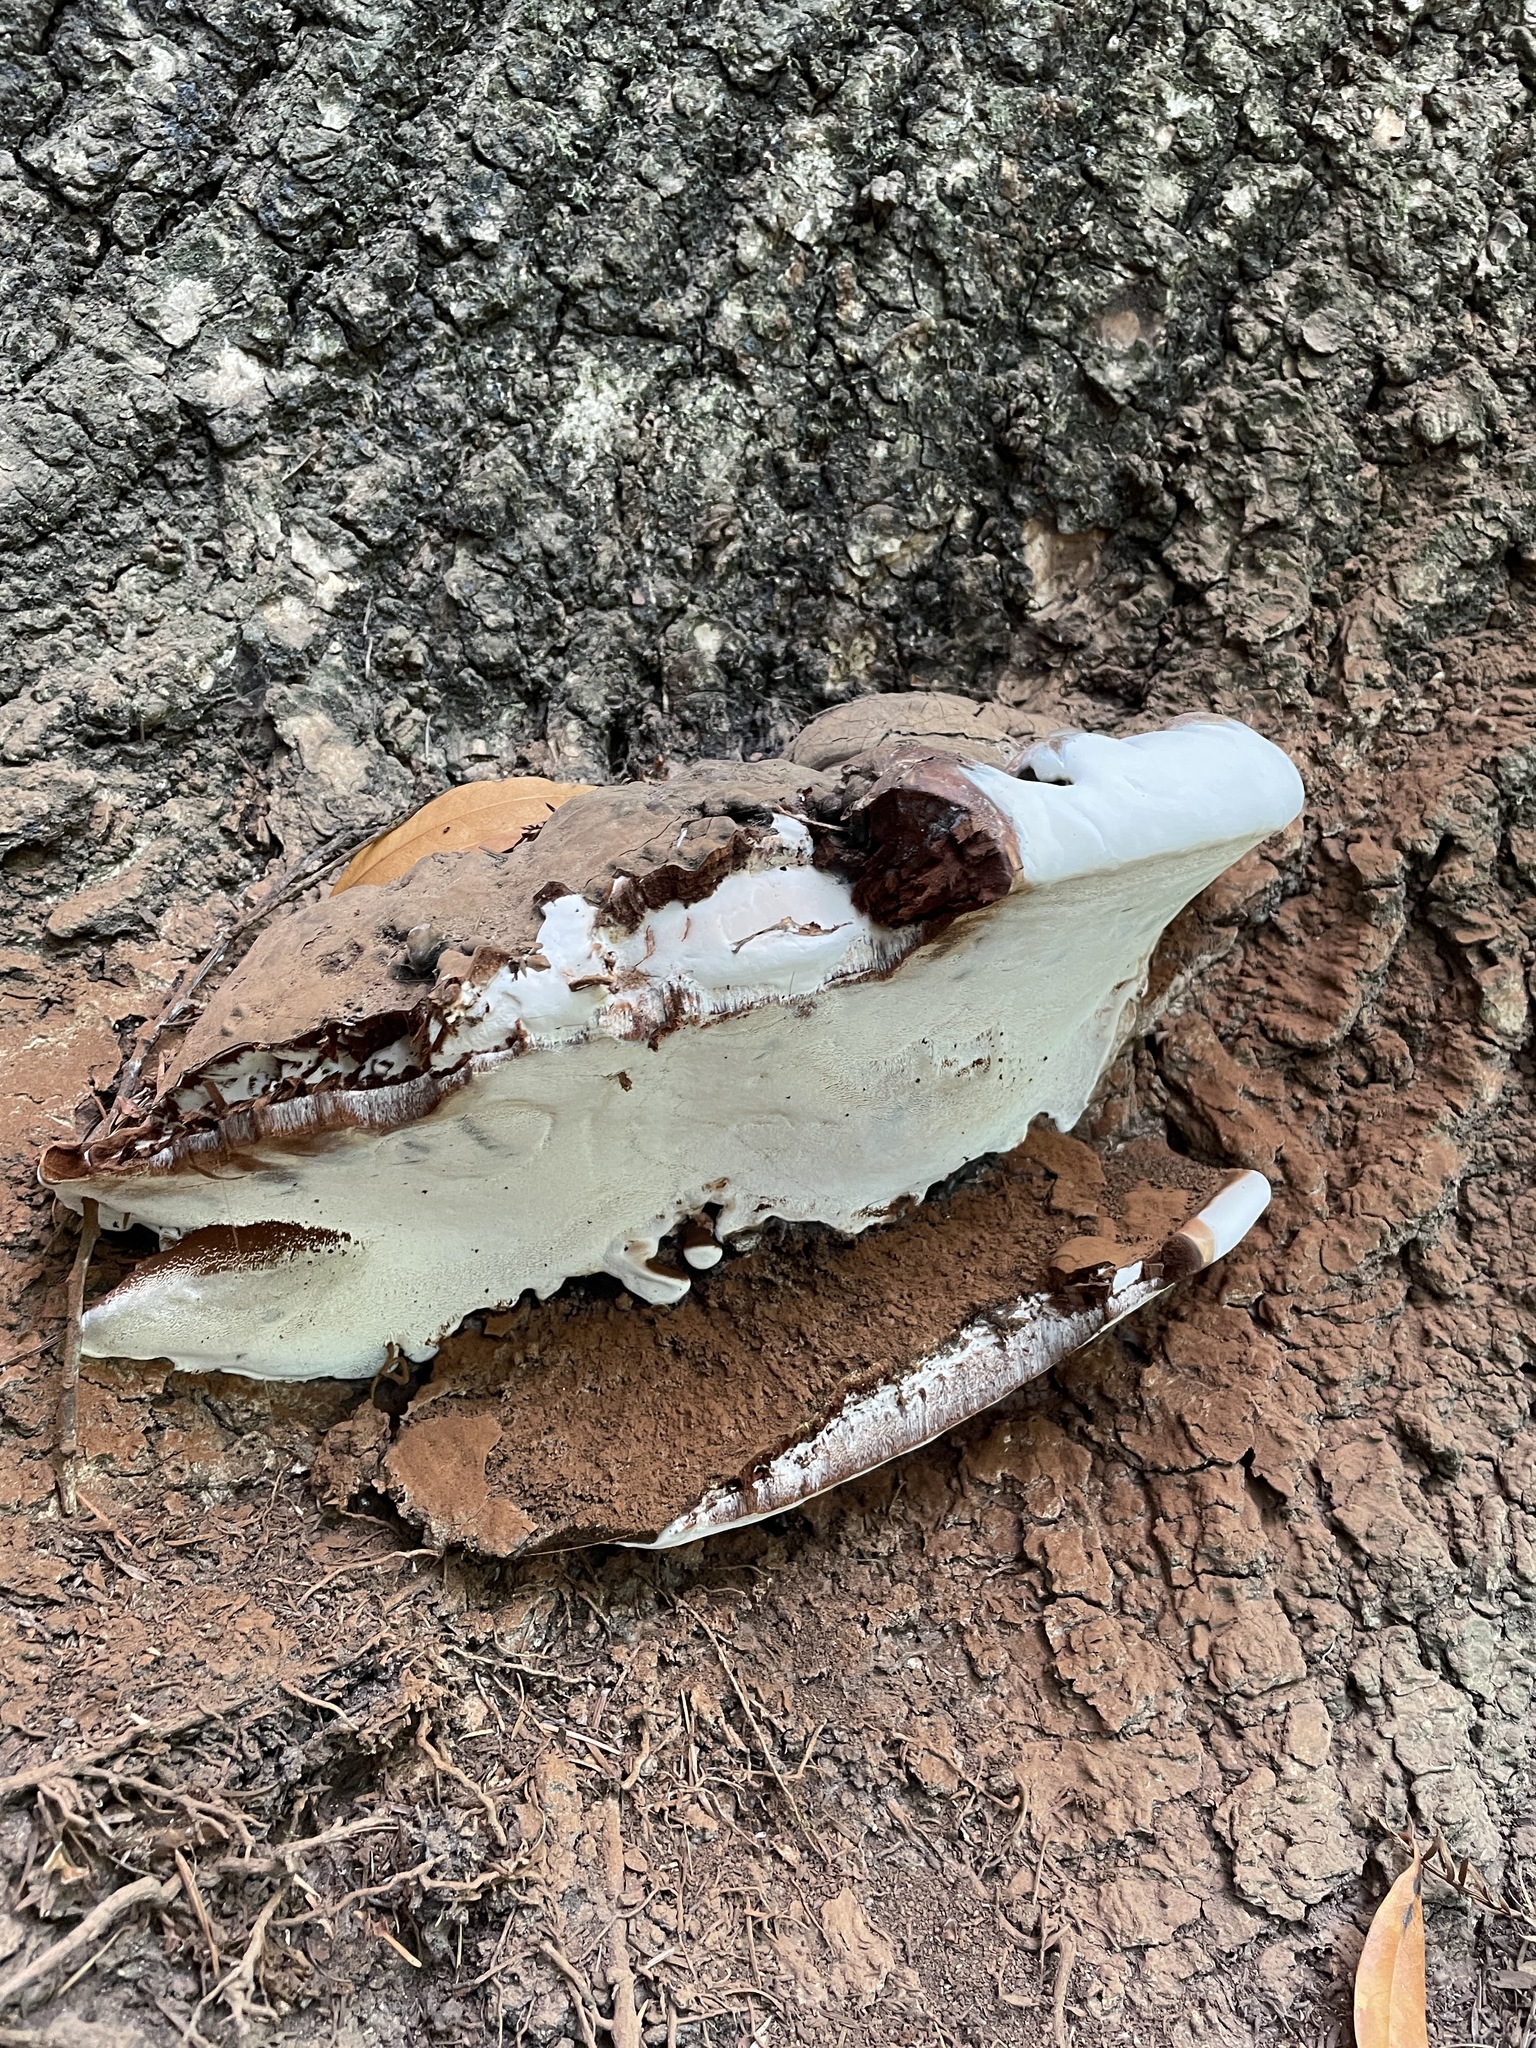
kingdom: Fungi
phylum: Basidiomycota
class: Agaricomycetes
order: Polyporales
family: Polyporaceae
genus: Ganoderma
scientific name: Ganoderma brownii
